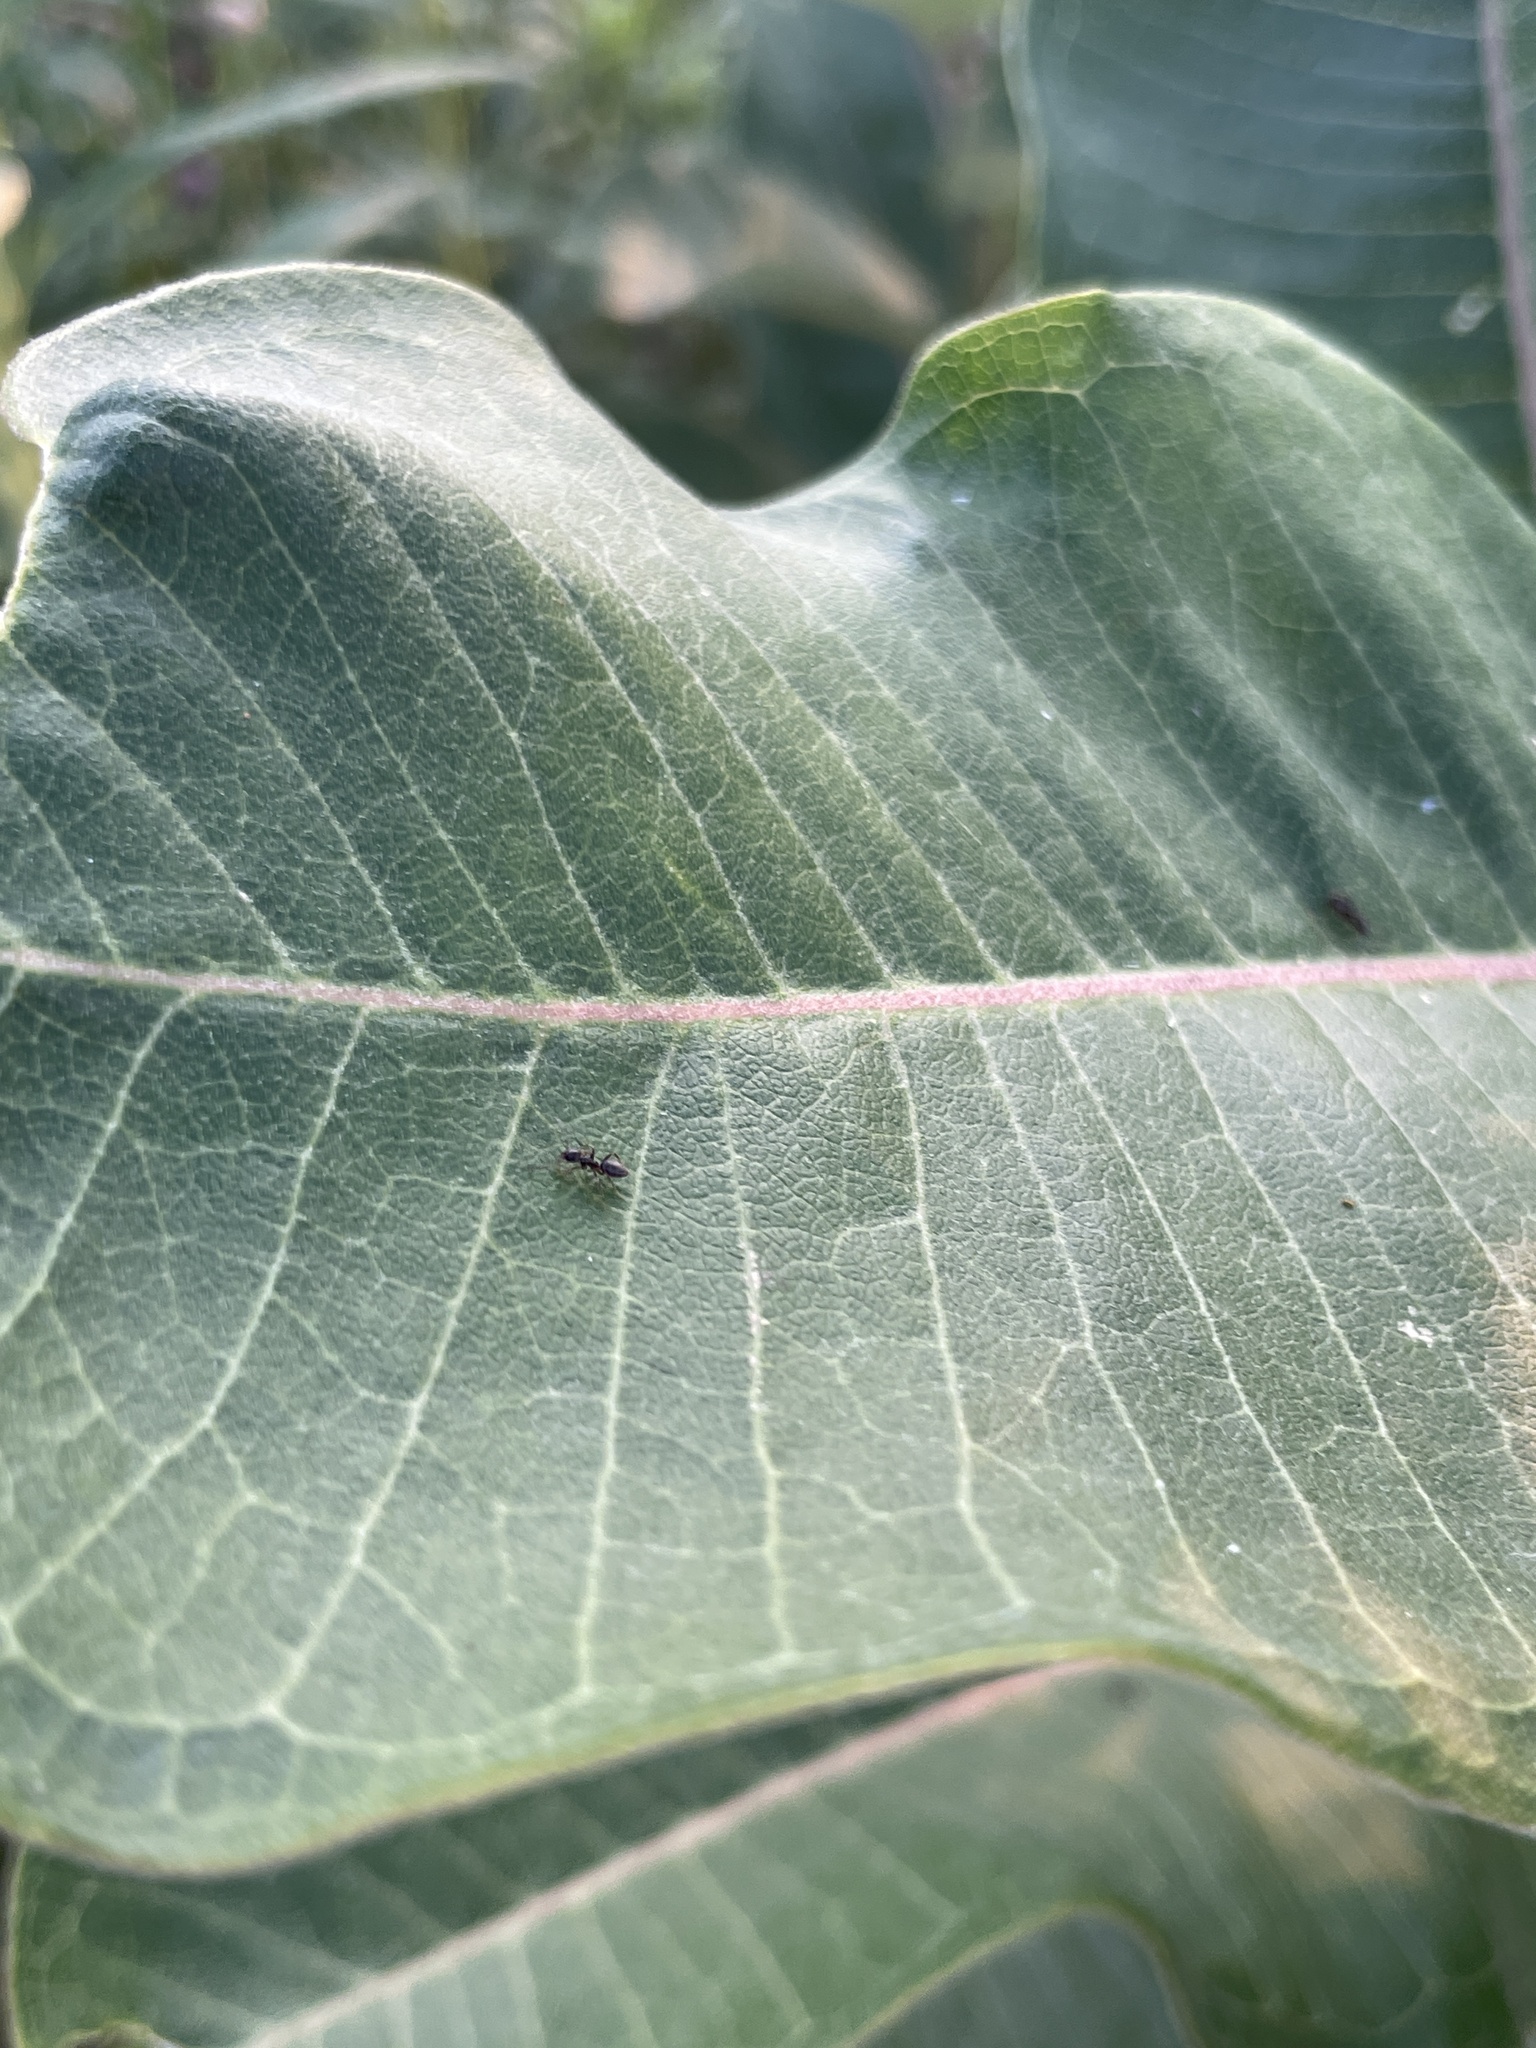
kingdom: Animalia
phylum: Arthropoda
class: Insecta
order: Hymenoptera
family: Formicidae
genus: Tapinoma
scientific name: Tapinoma sessile
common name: Odorous house ant
